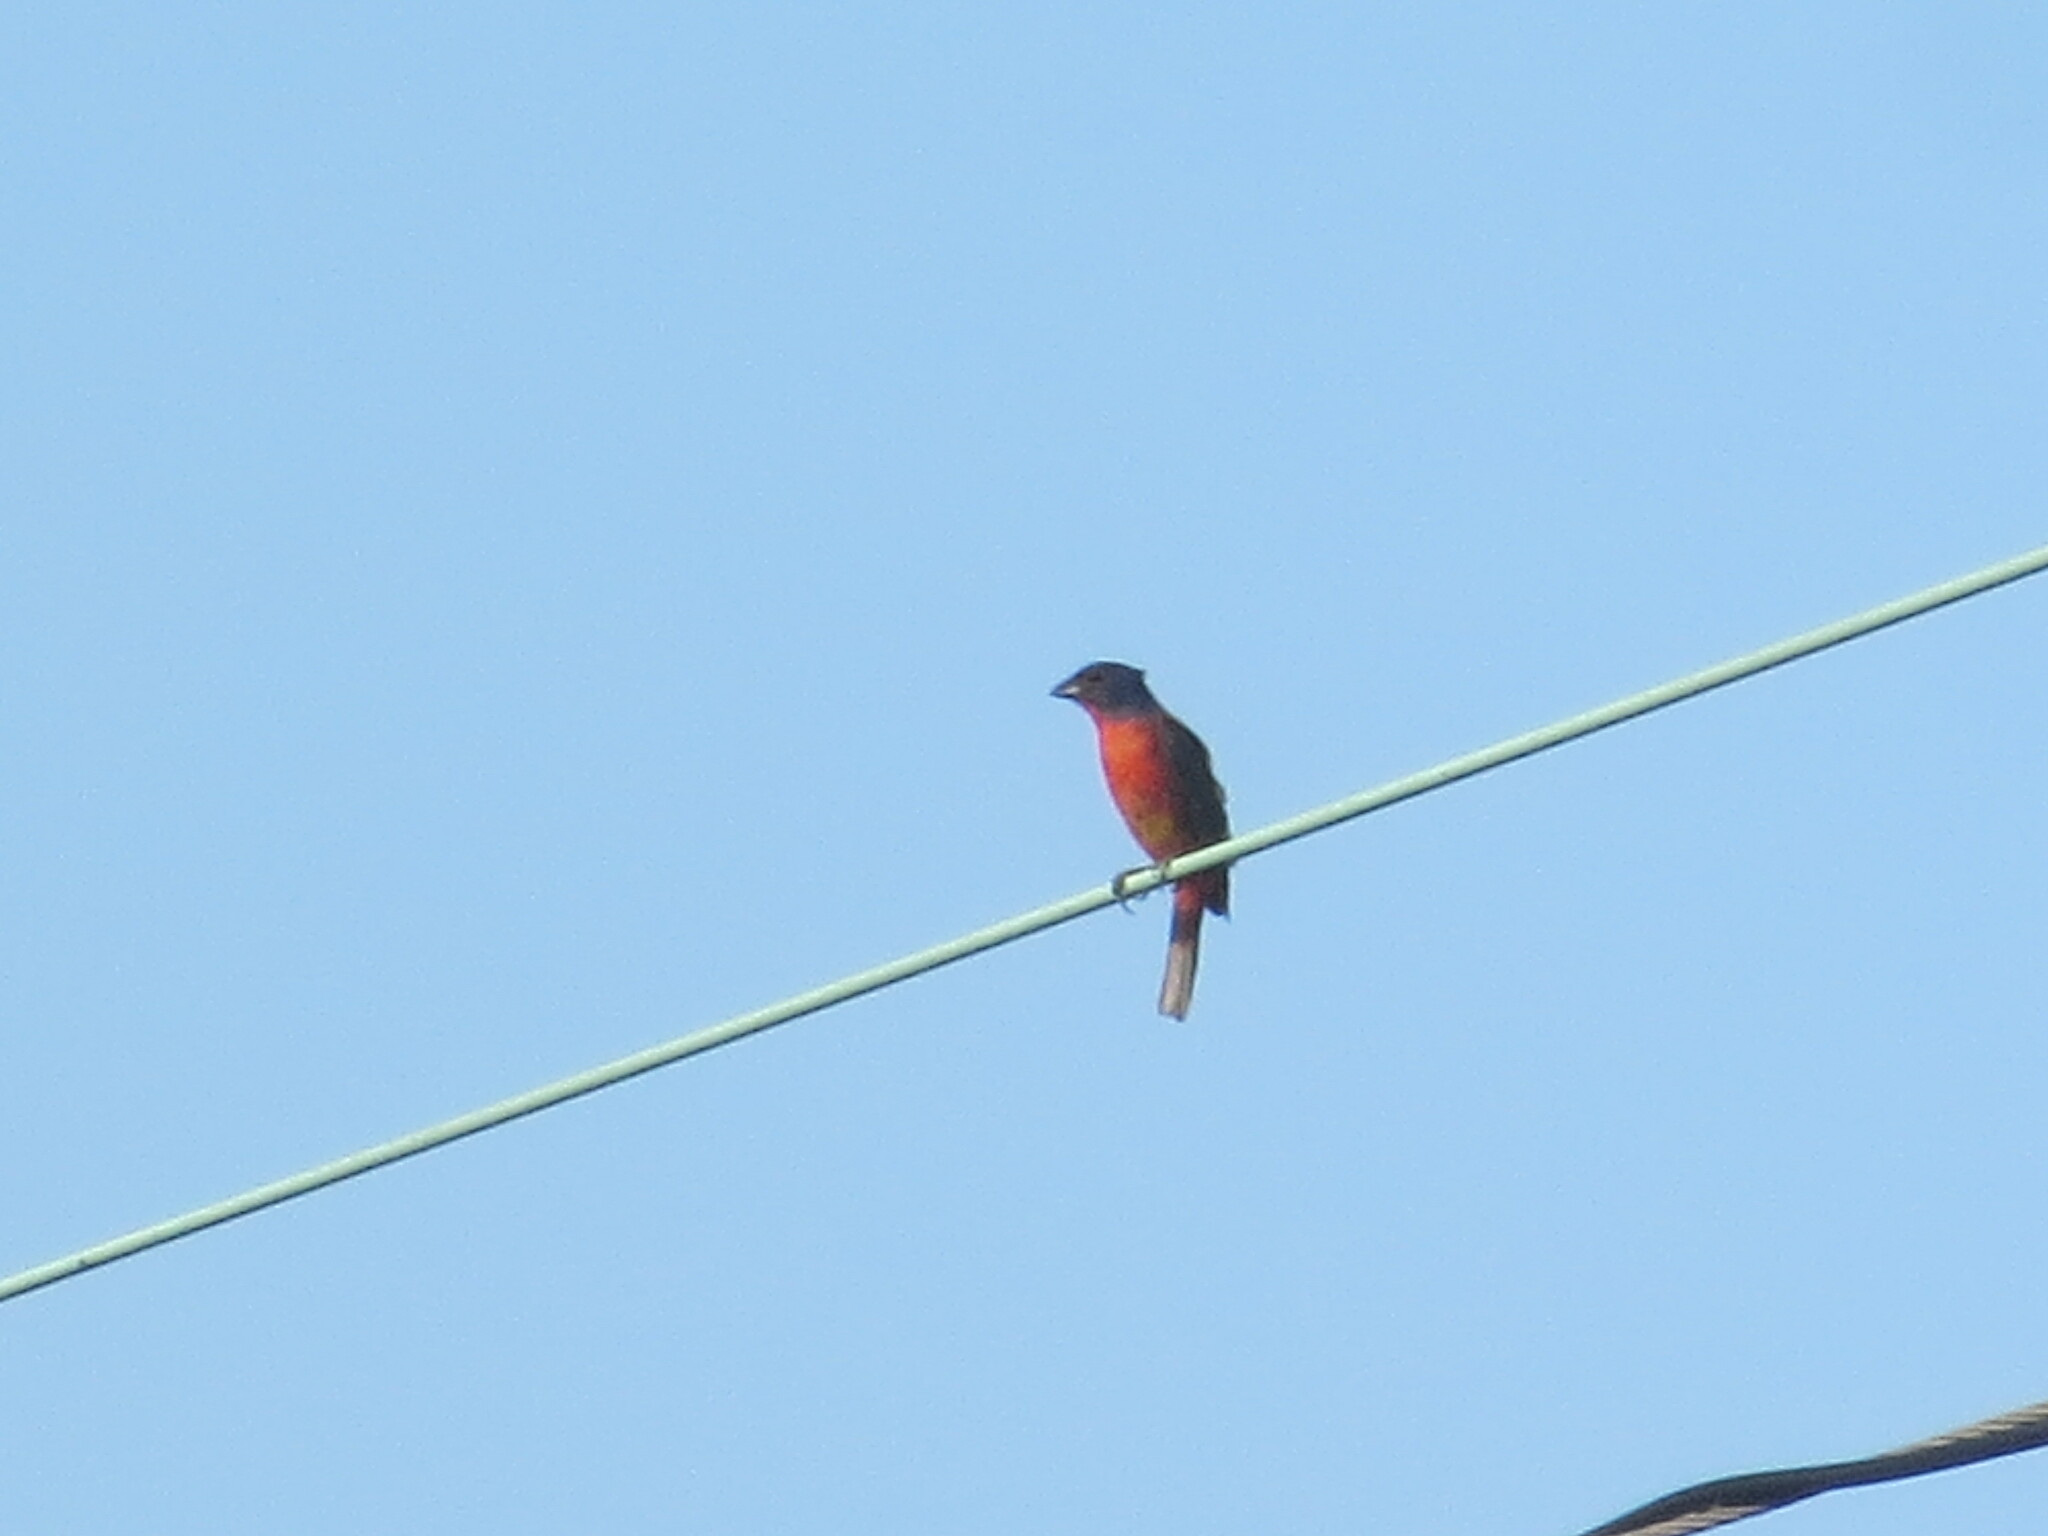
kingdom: Animalia
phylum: Chordata
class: Aves
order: Passeriformes
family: Cardinalidae
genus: Passerina
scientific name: Passerina ciris
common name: Painted bunting
